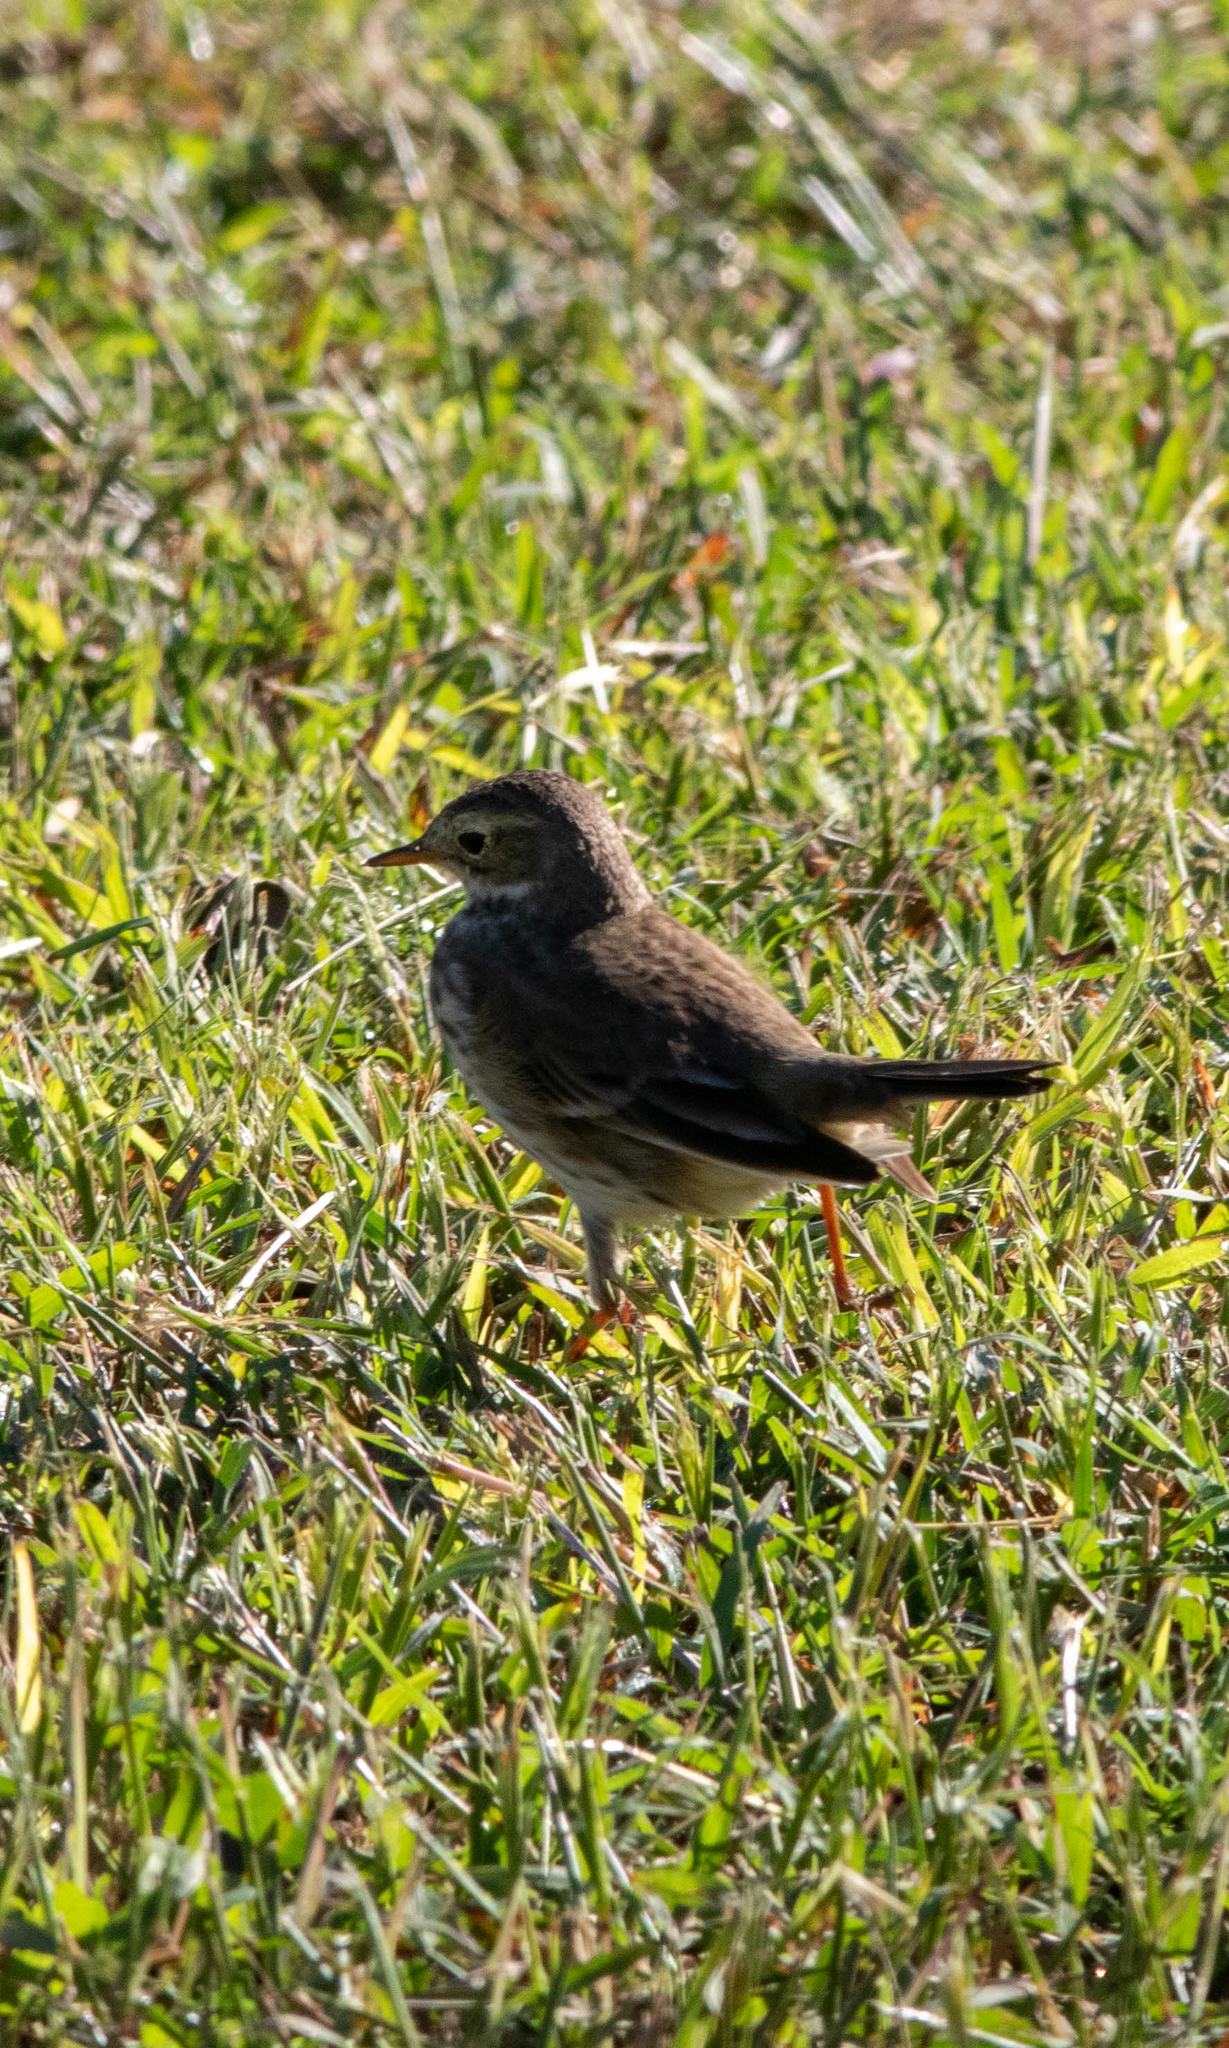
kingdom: Animalia
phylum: Chordata
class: Aves
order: Passeriformes
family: Motacillidae
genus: Anthus
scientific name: Anthus rubescens
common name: Buff-bellied pipit
